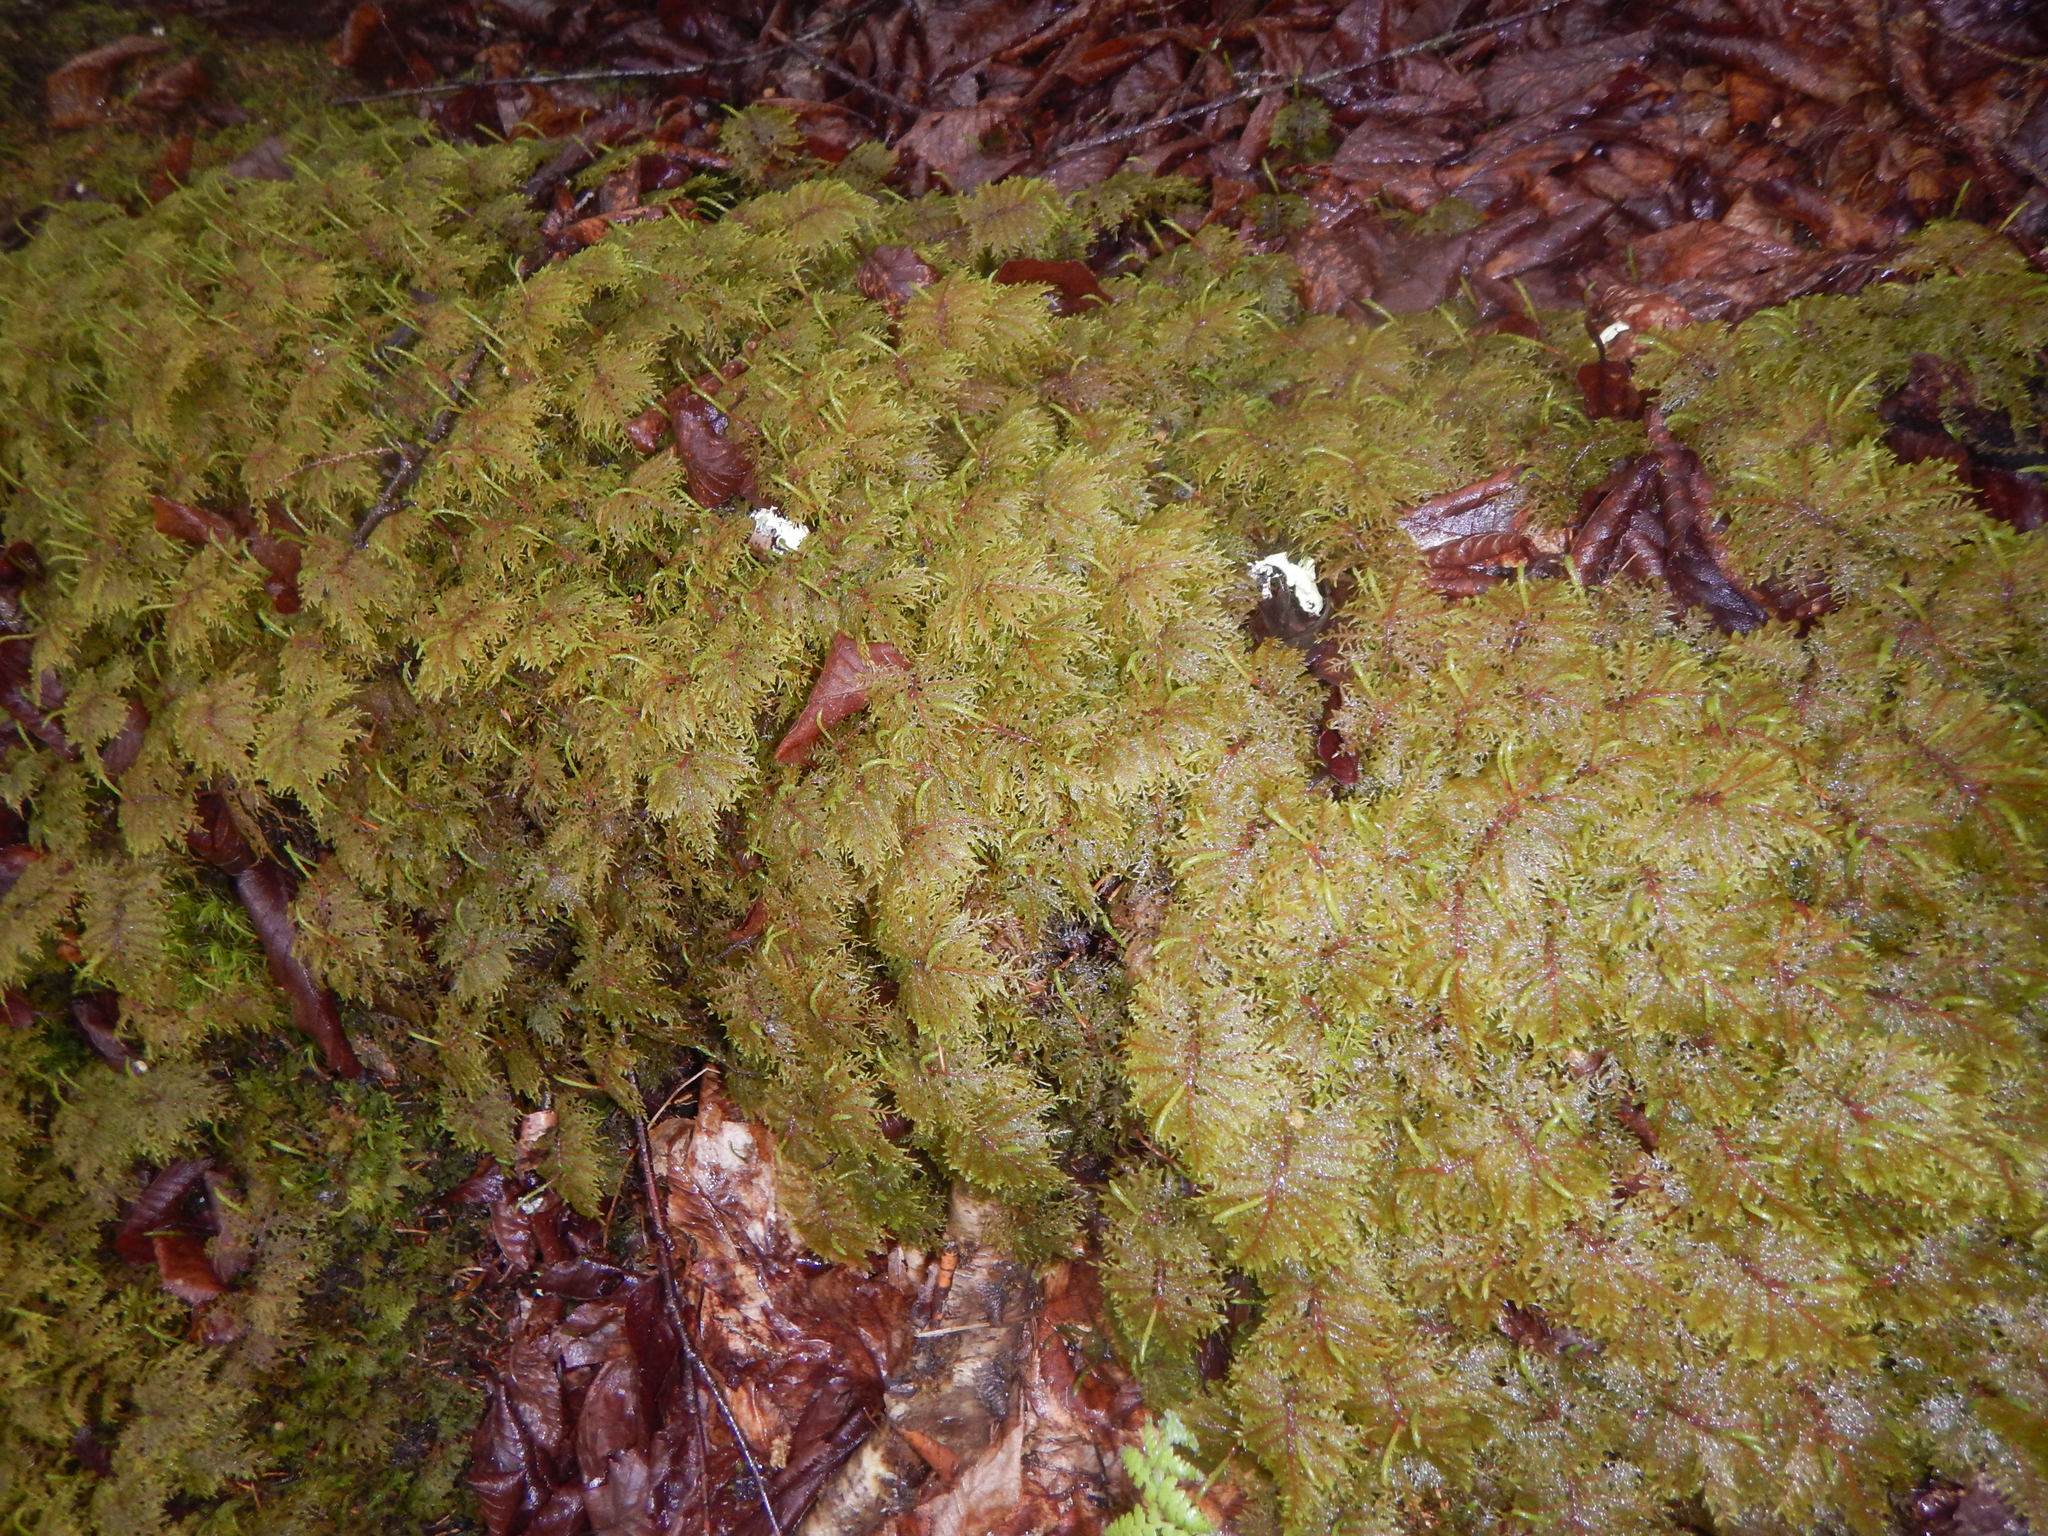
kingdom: Plantae
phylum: Bryophyta
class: Bryopsida
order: Hypnales
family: Hylocomiaceae
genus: Hylocomium
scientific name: Hylocomium splendens
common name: Stairstep moss
